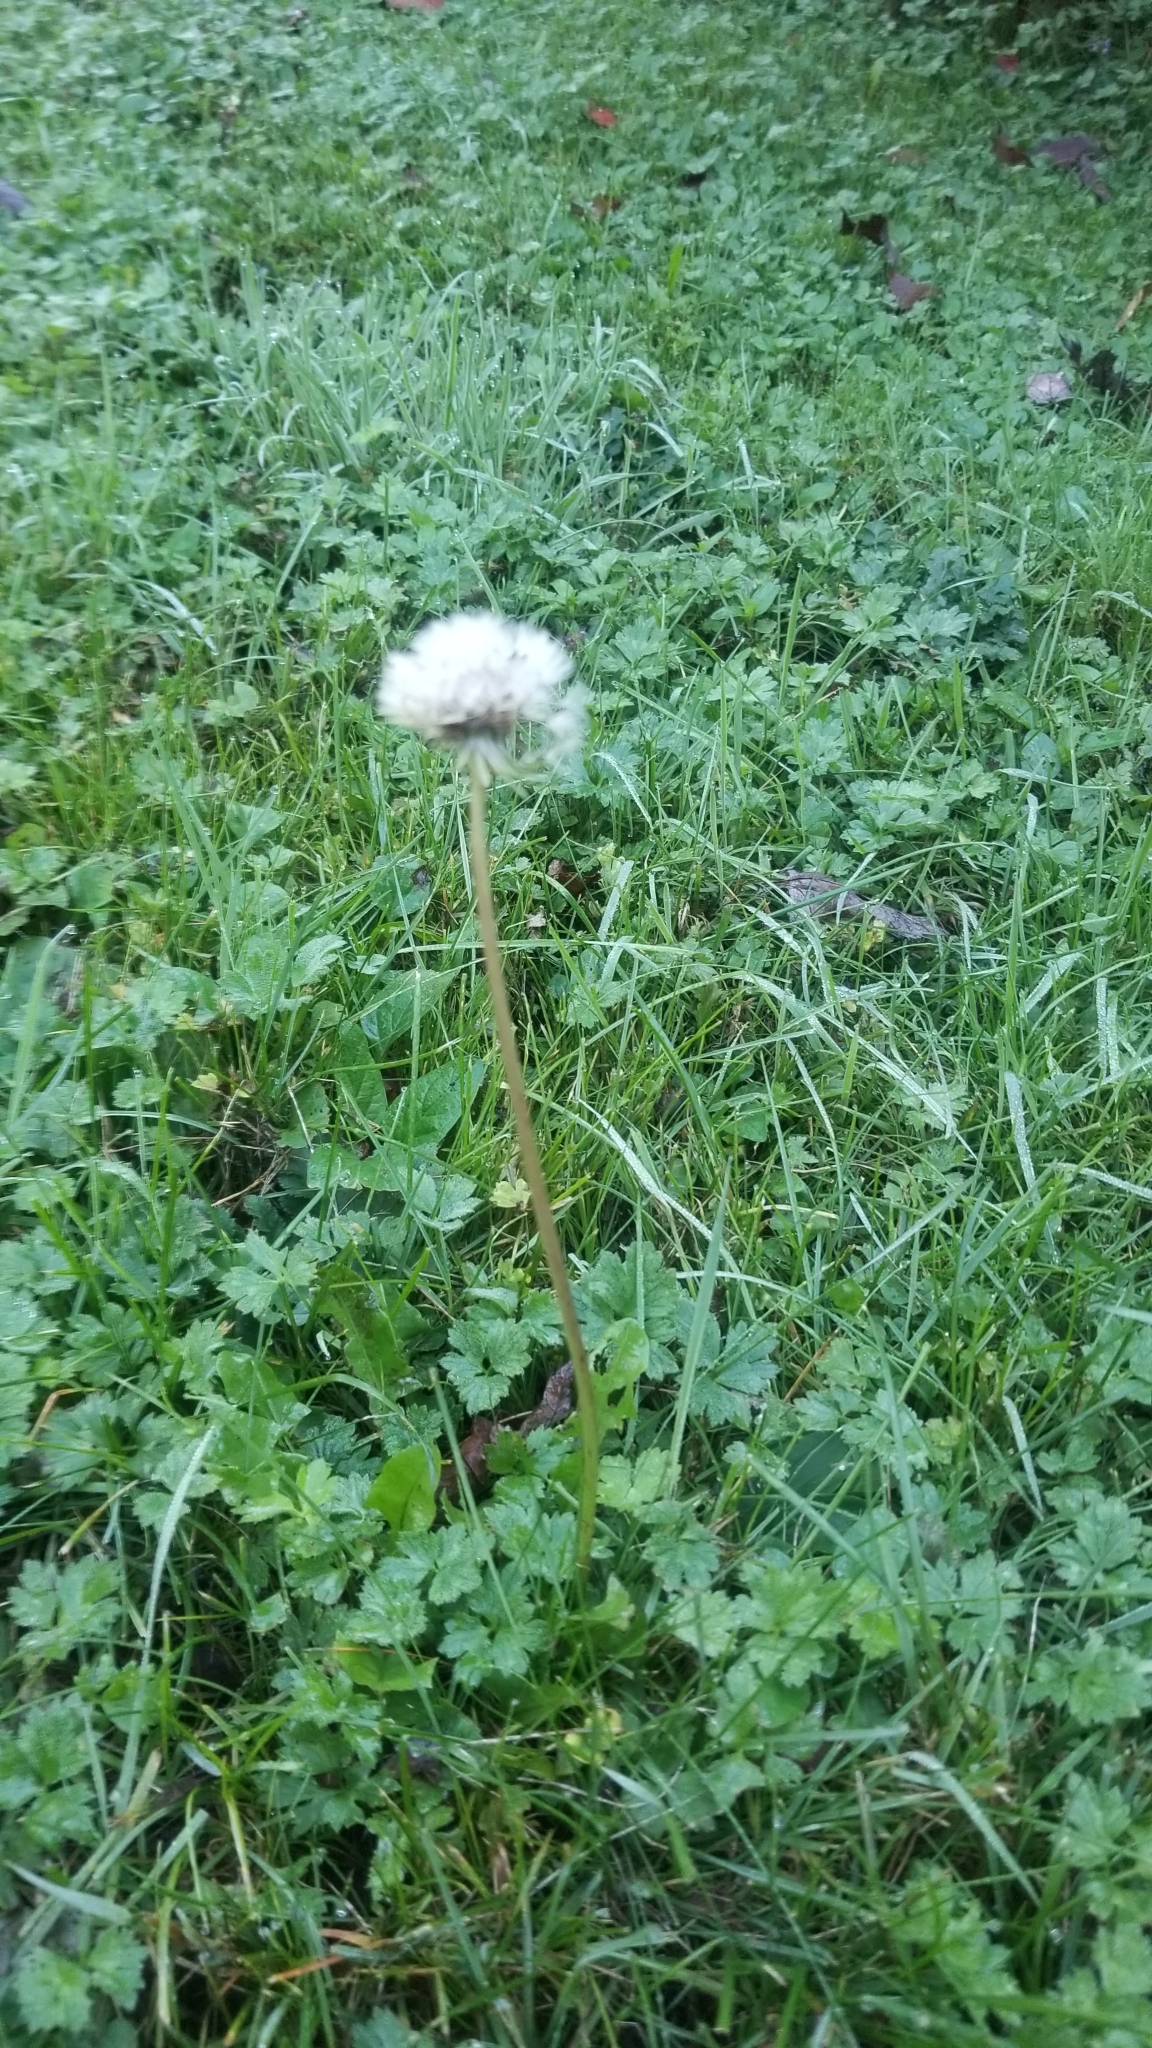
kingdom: Plantae
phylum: Tracheophyta
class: Magnoliopsida
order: Asterales
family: Asteraceae
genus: Taraxacum
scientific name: Taraxacum officinale
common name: Common dandelion
